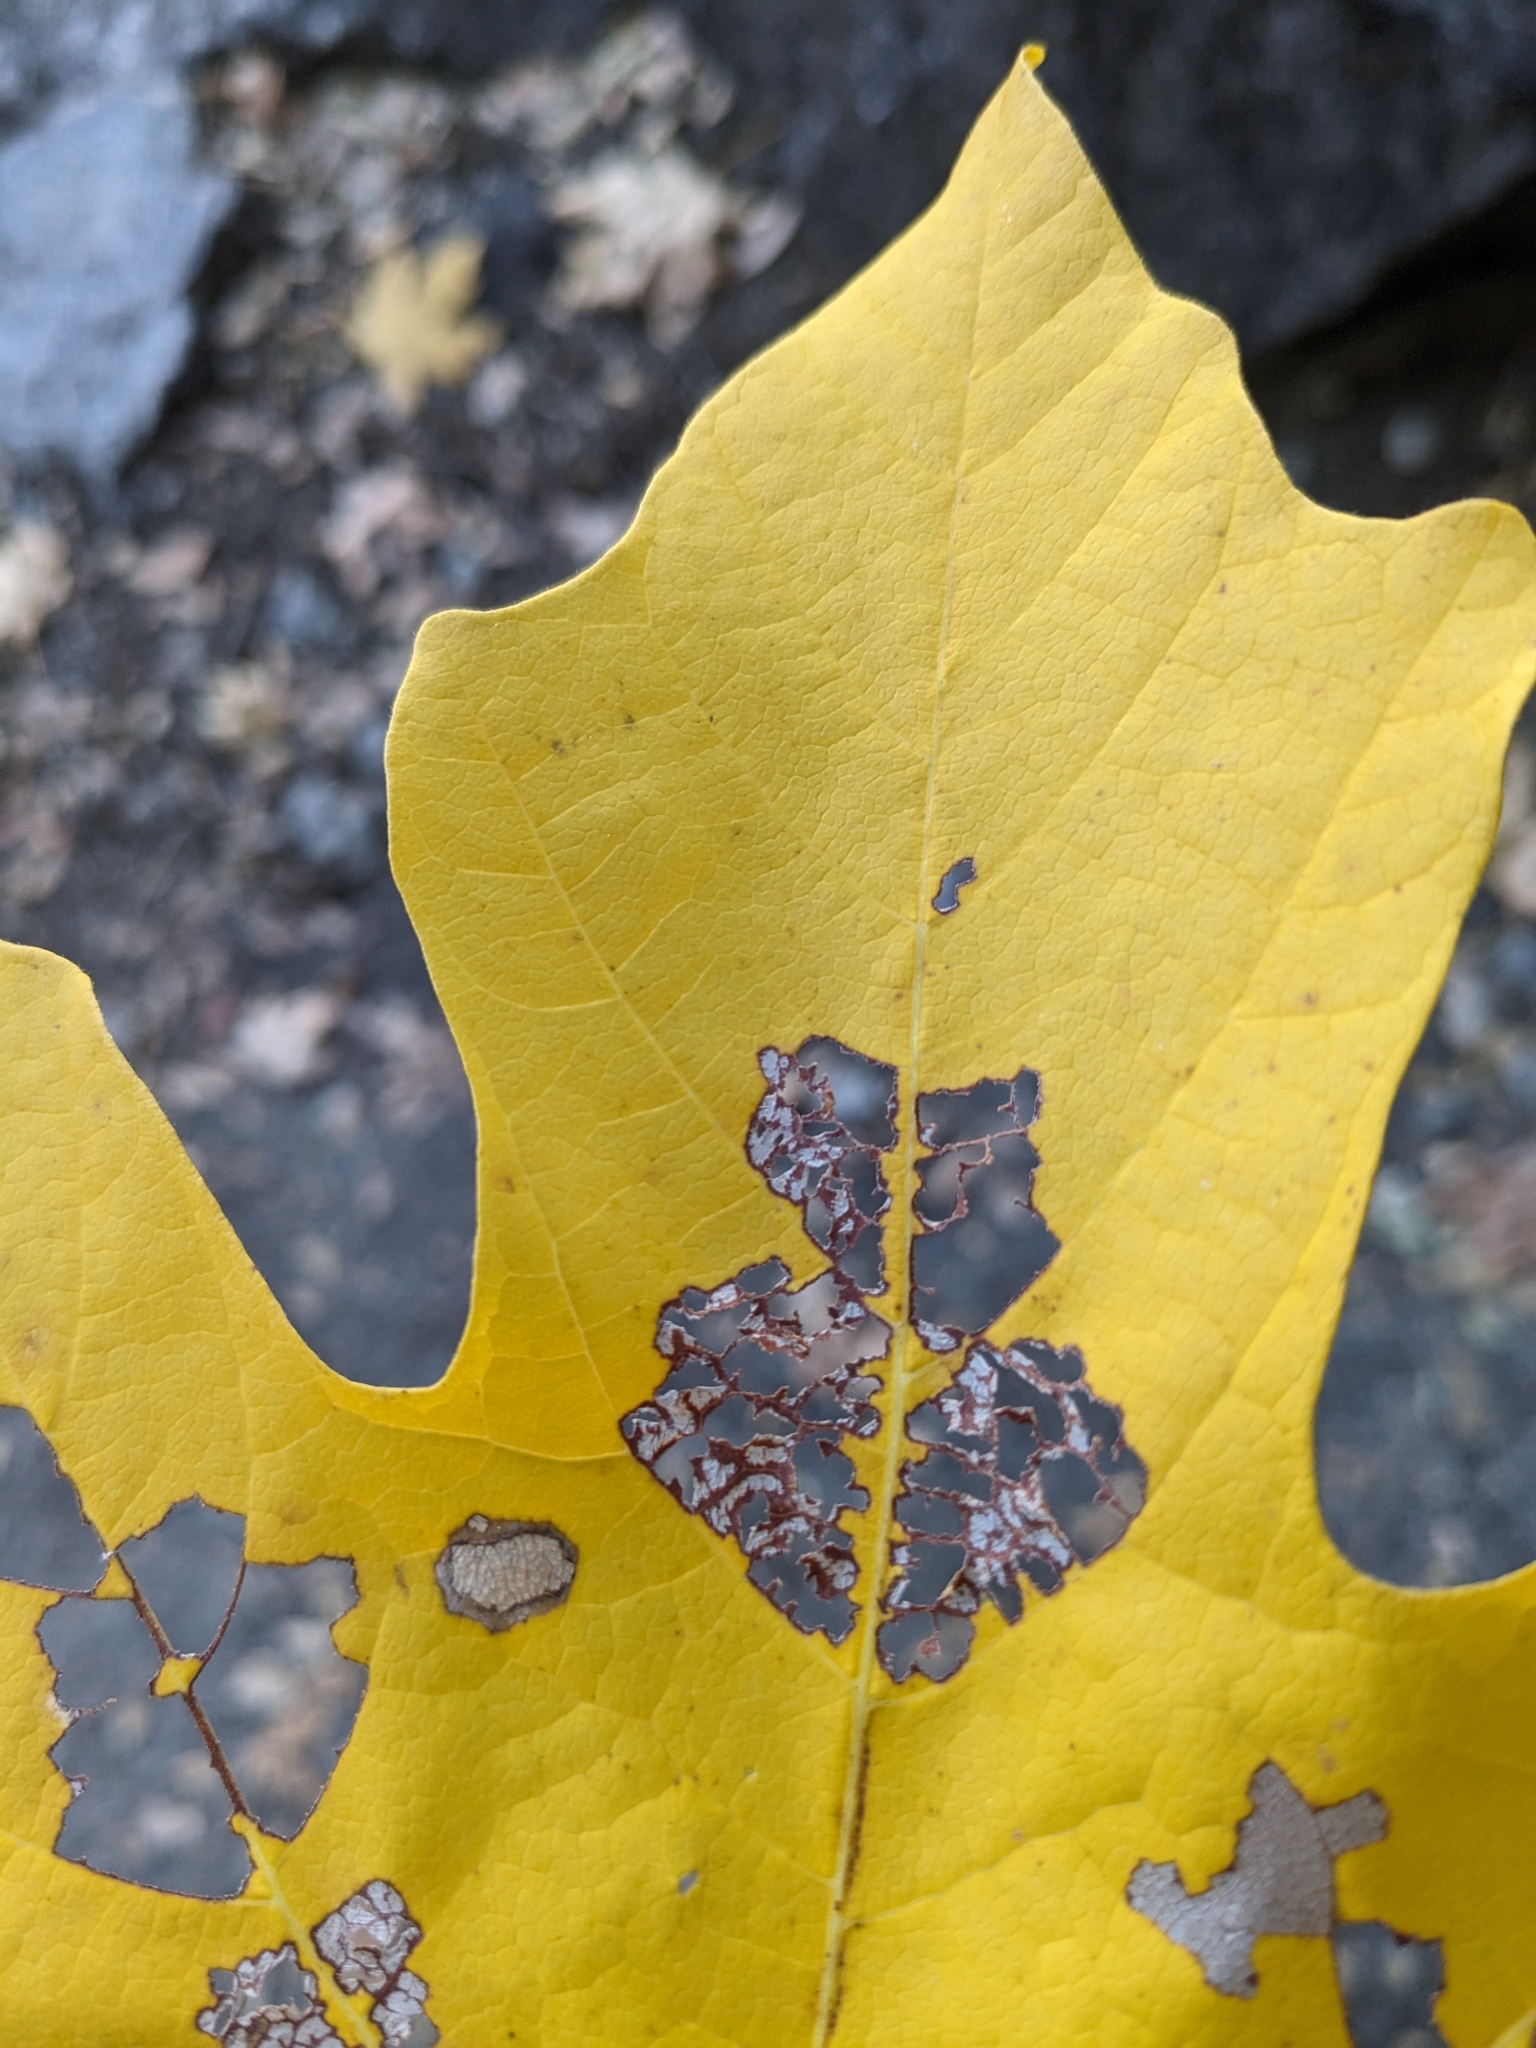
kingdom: Plantae
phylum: Tracheophyta
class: Magnoliopsida
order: Sapindales
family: Sapindaceae
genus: Acer
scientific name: Acer macrophyllum
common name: Oregon maple
